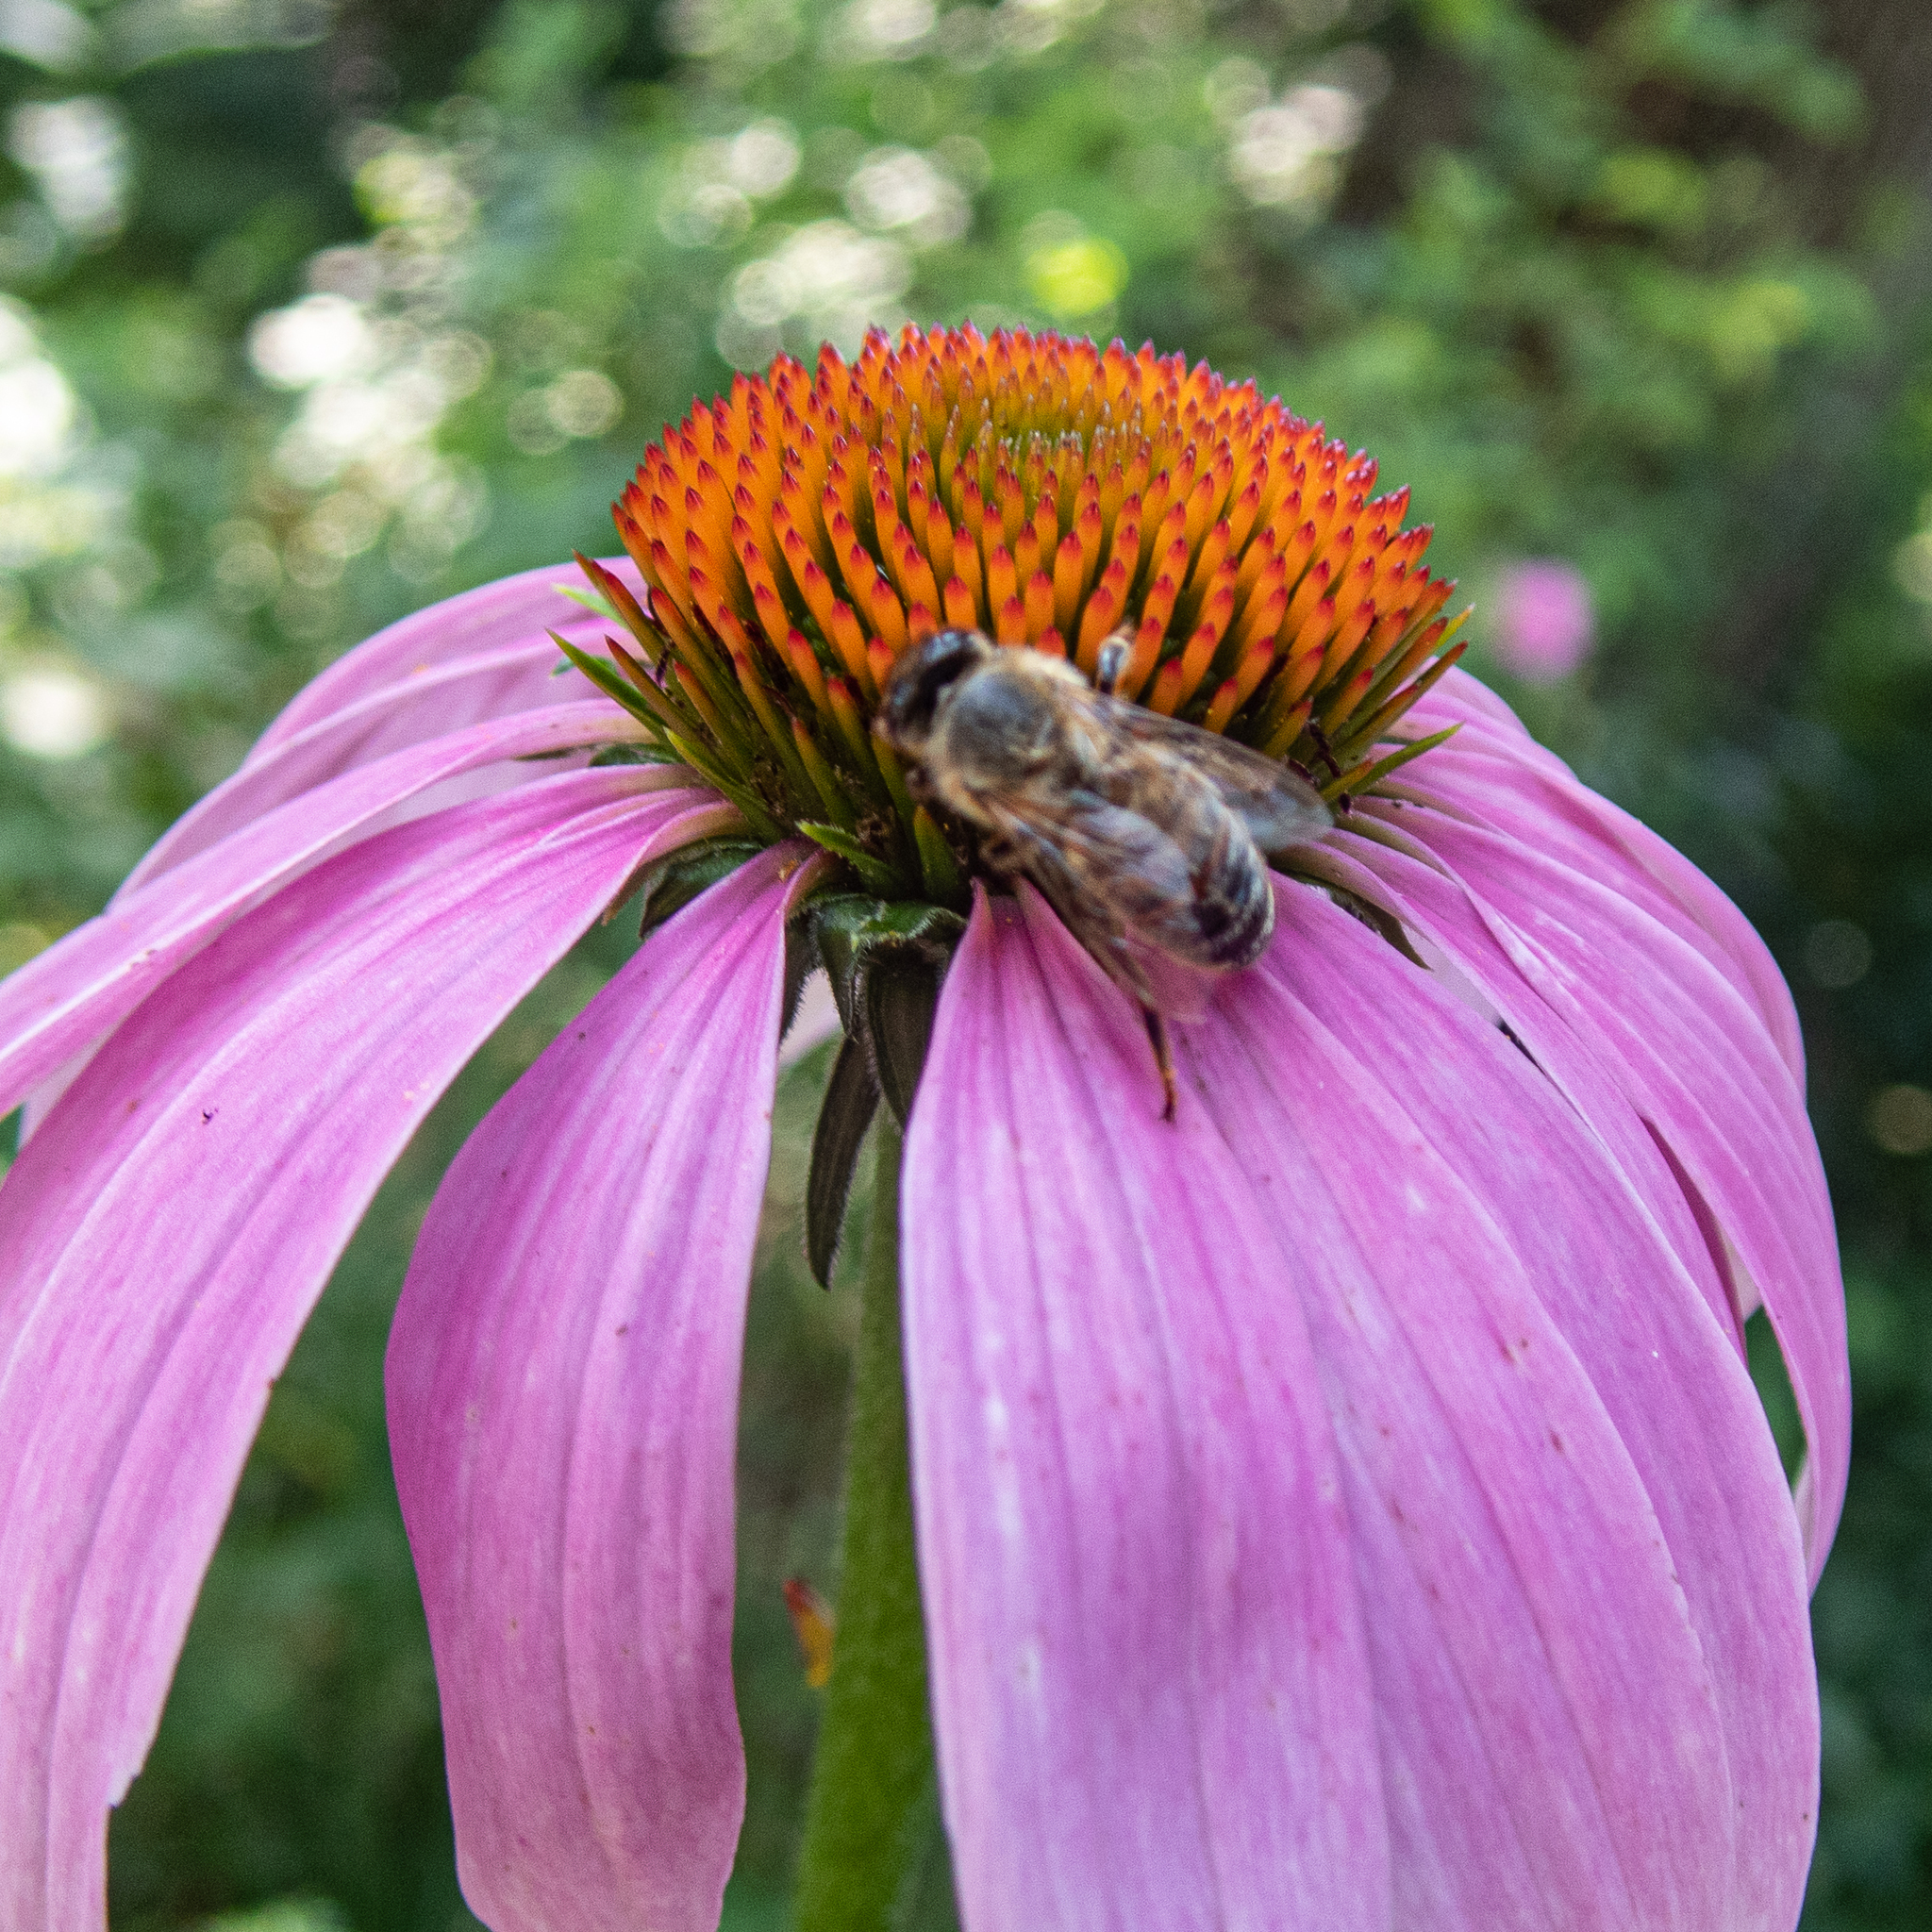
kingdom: Animalia
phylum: Arthropoda
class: Insecta
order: Hymenoptera
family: Apidae
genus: Apis
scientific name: Apis mellifera
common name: Honey bee
